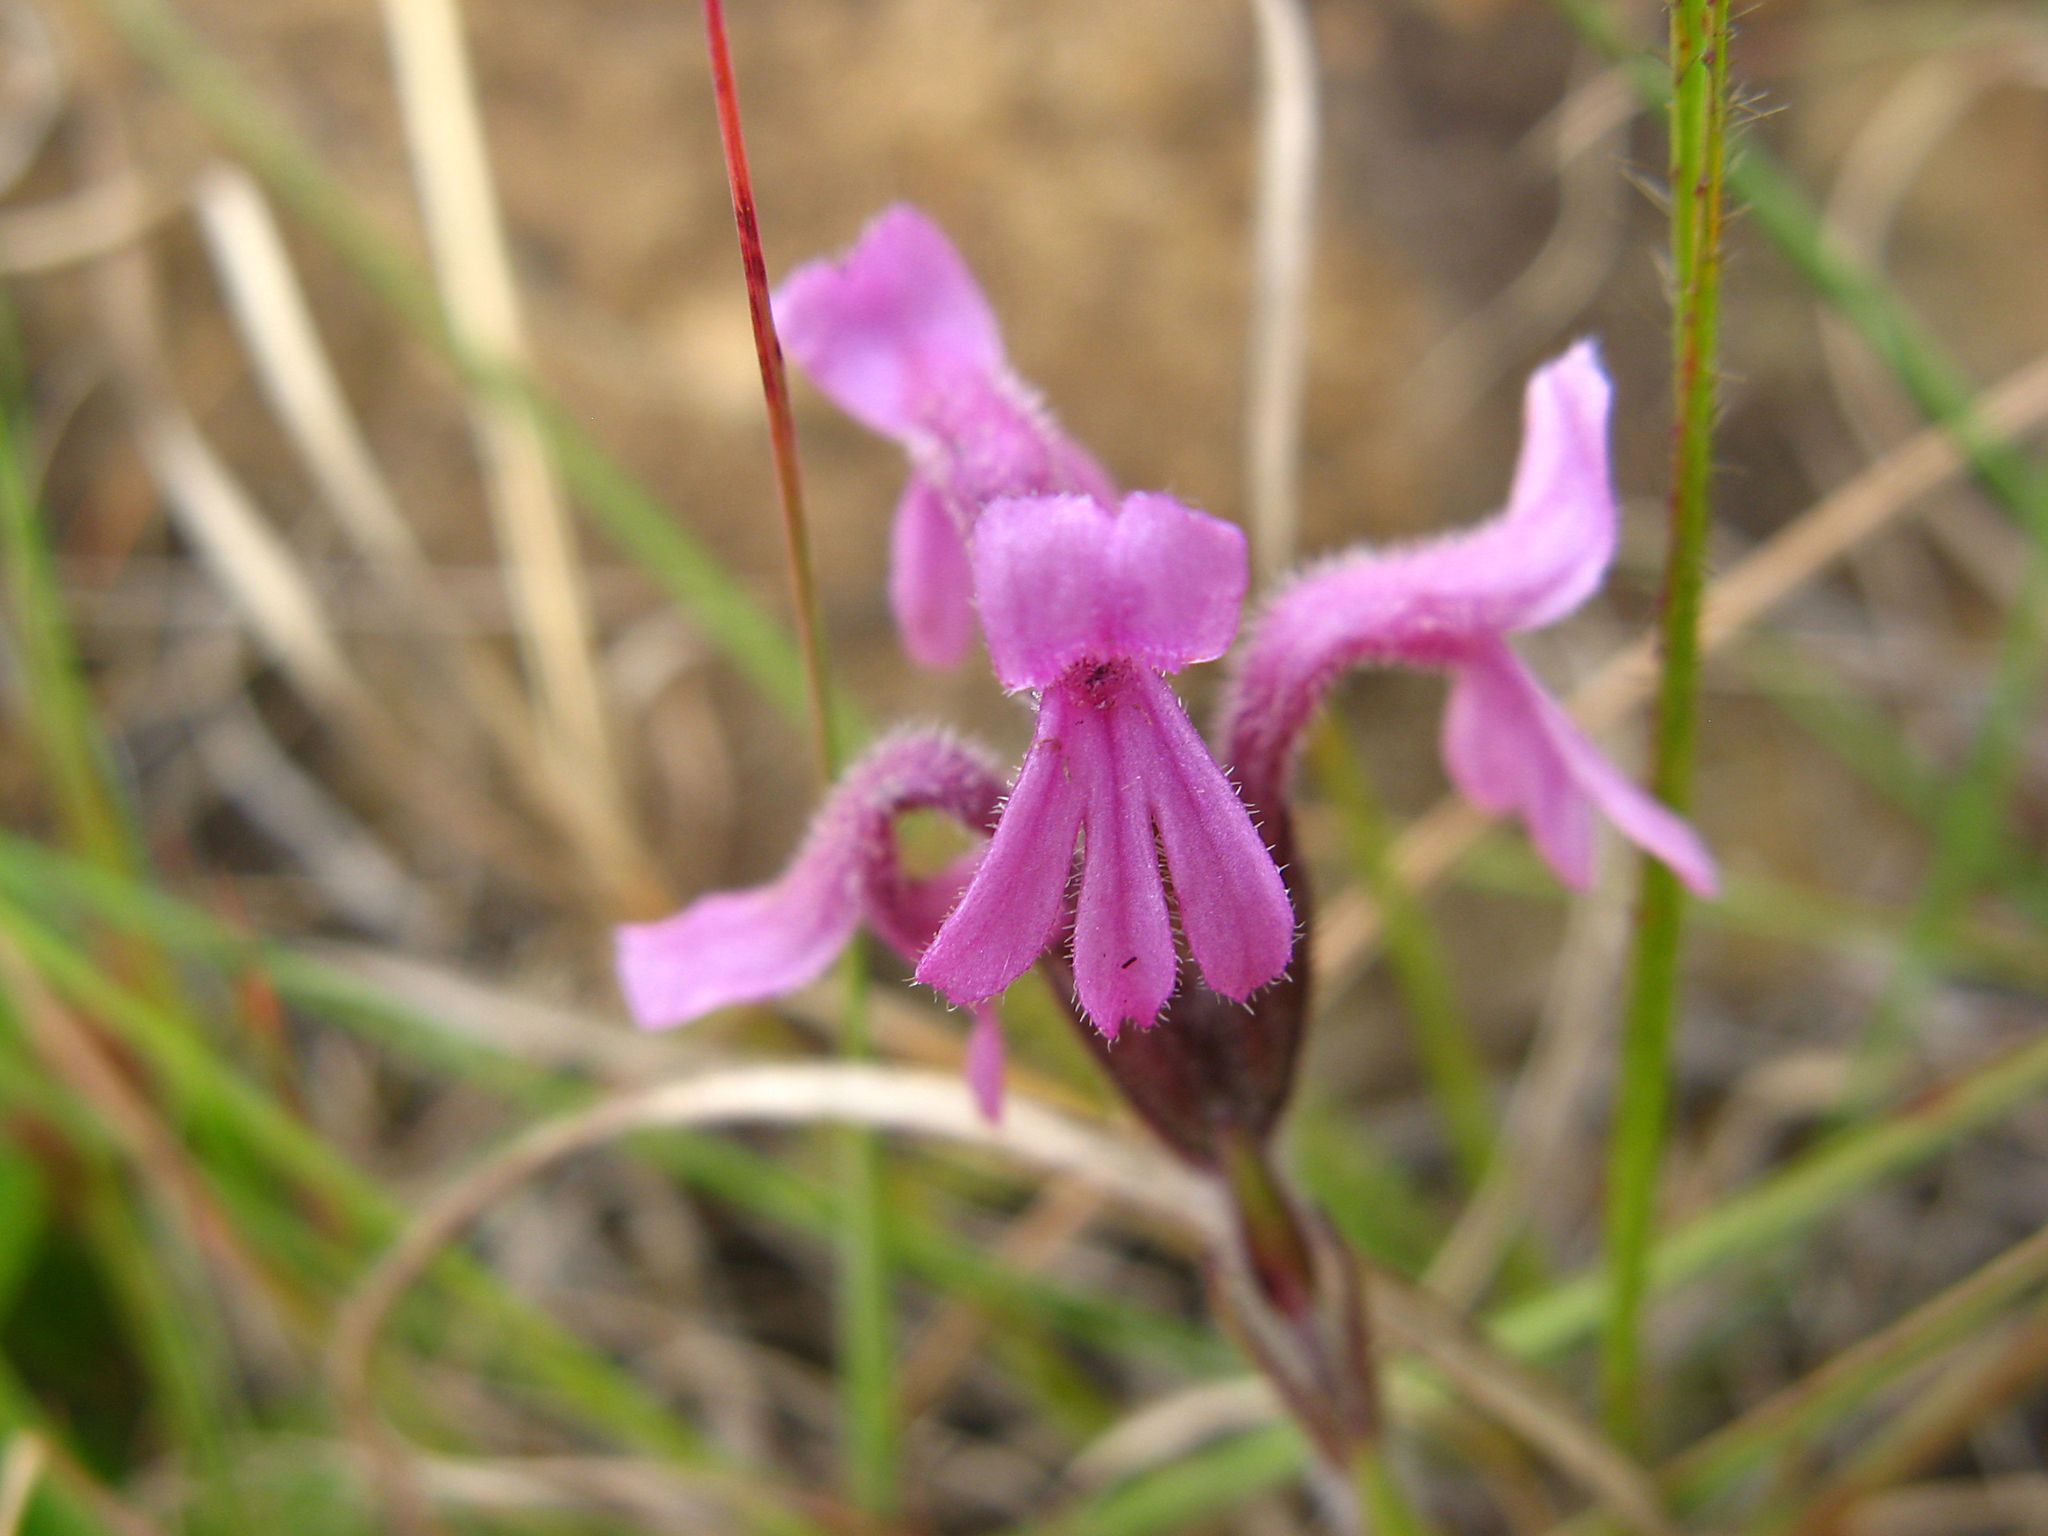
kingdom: Plantae
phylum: Tracheophyta
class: Magnoliopsida
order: Lamiales
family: Orobanchaceae
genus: Striga
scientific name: Striga bilabiata
